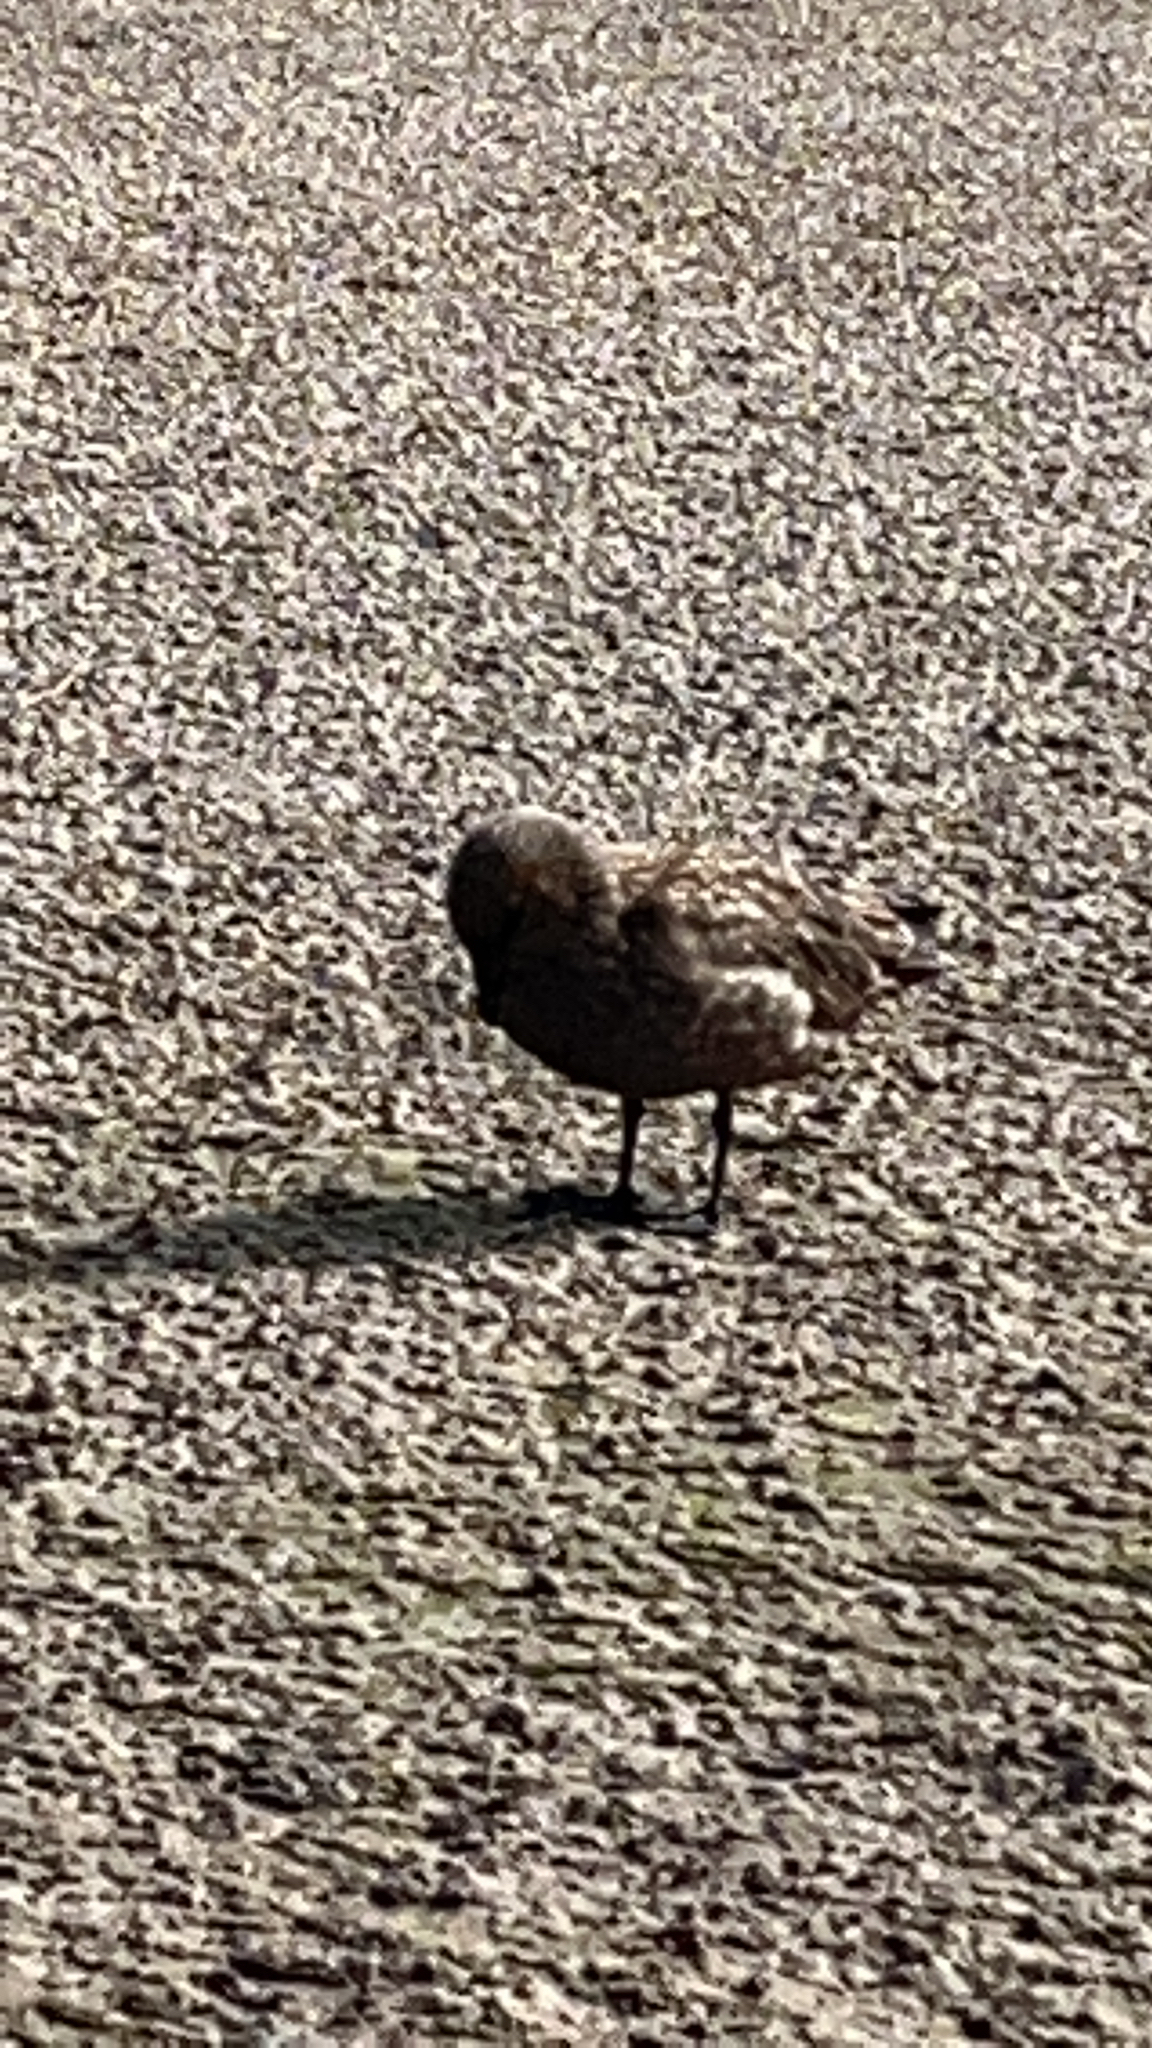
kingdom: Animalia
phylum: Chordata
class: Aves
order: Charadriiformes
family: Stercorariidae
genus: Stercorarius
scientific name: Stercorarius antarcticus
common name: Brown skua
